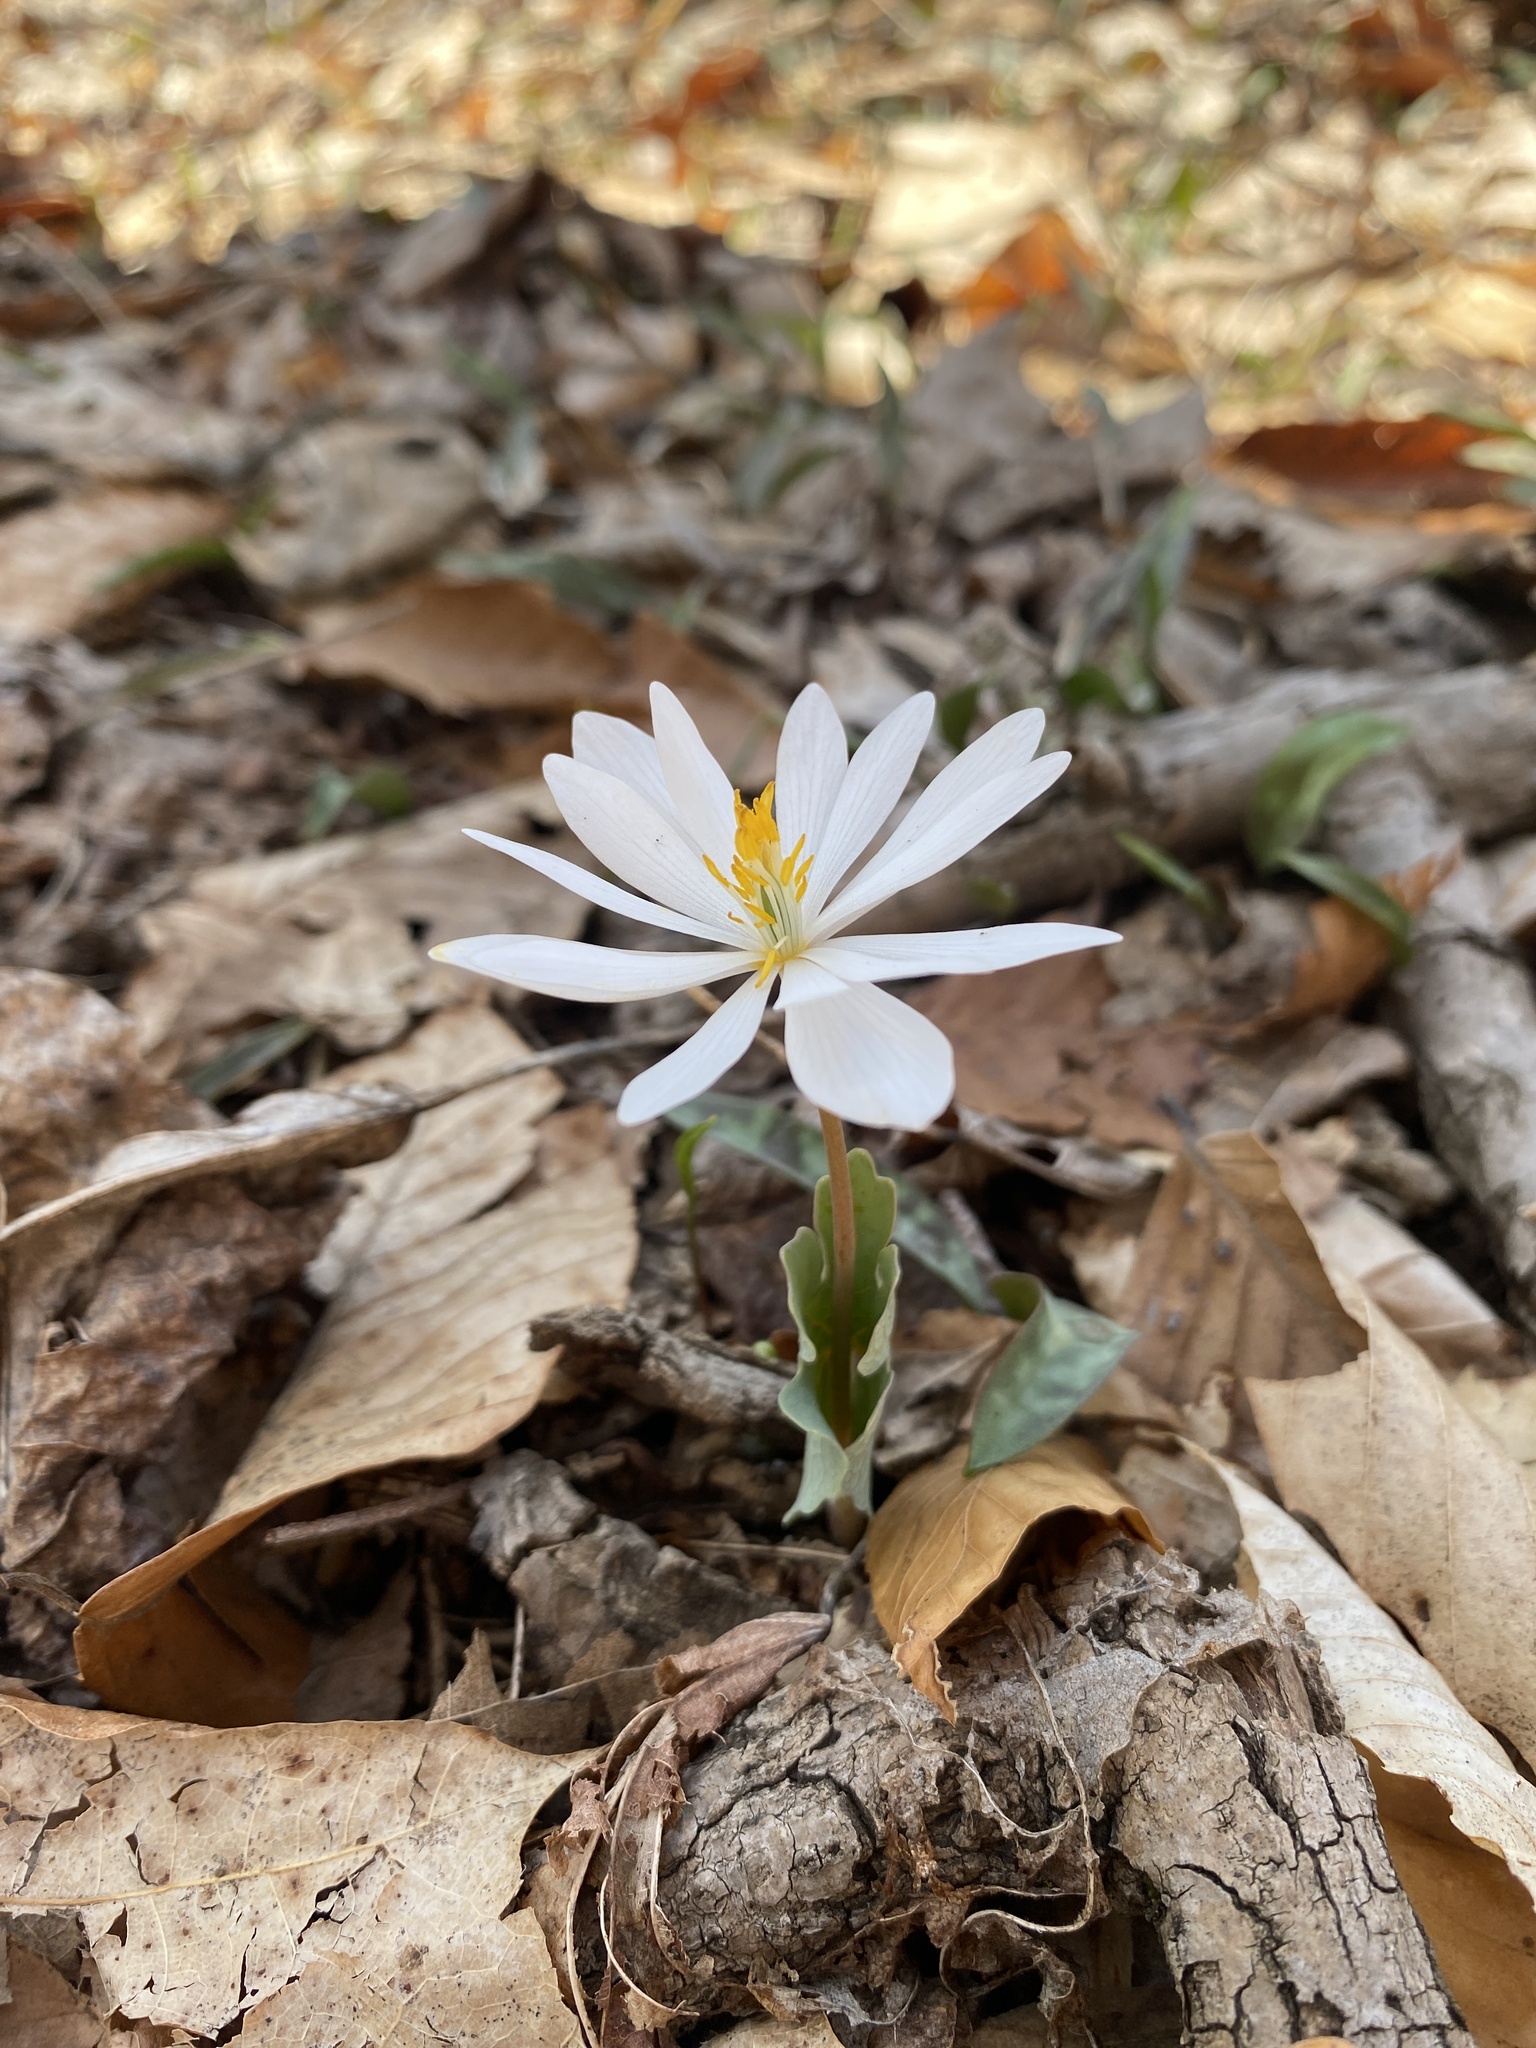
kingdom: Plantae
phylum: Tracheophyta
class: Magnoliopsida
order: Ranunculales
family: Papaveraceae
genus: Sanguinaria
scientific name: Sanguinaria canadensis
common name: Bloodroot
